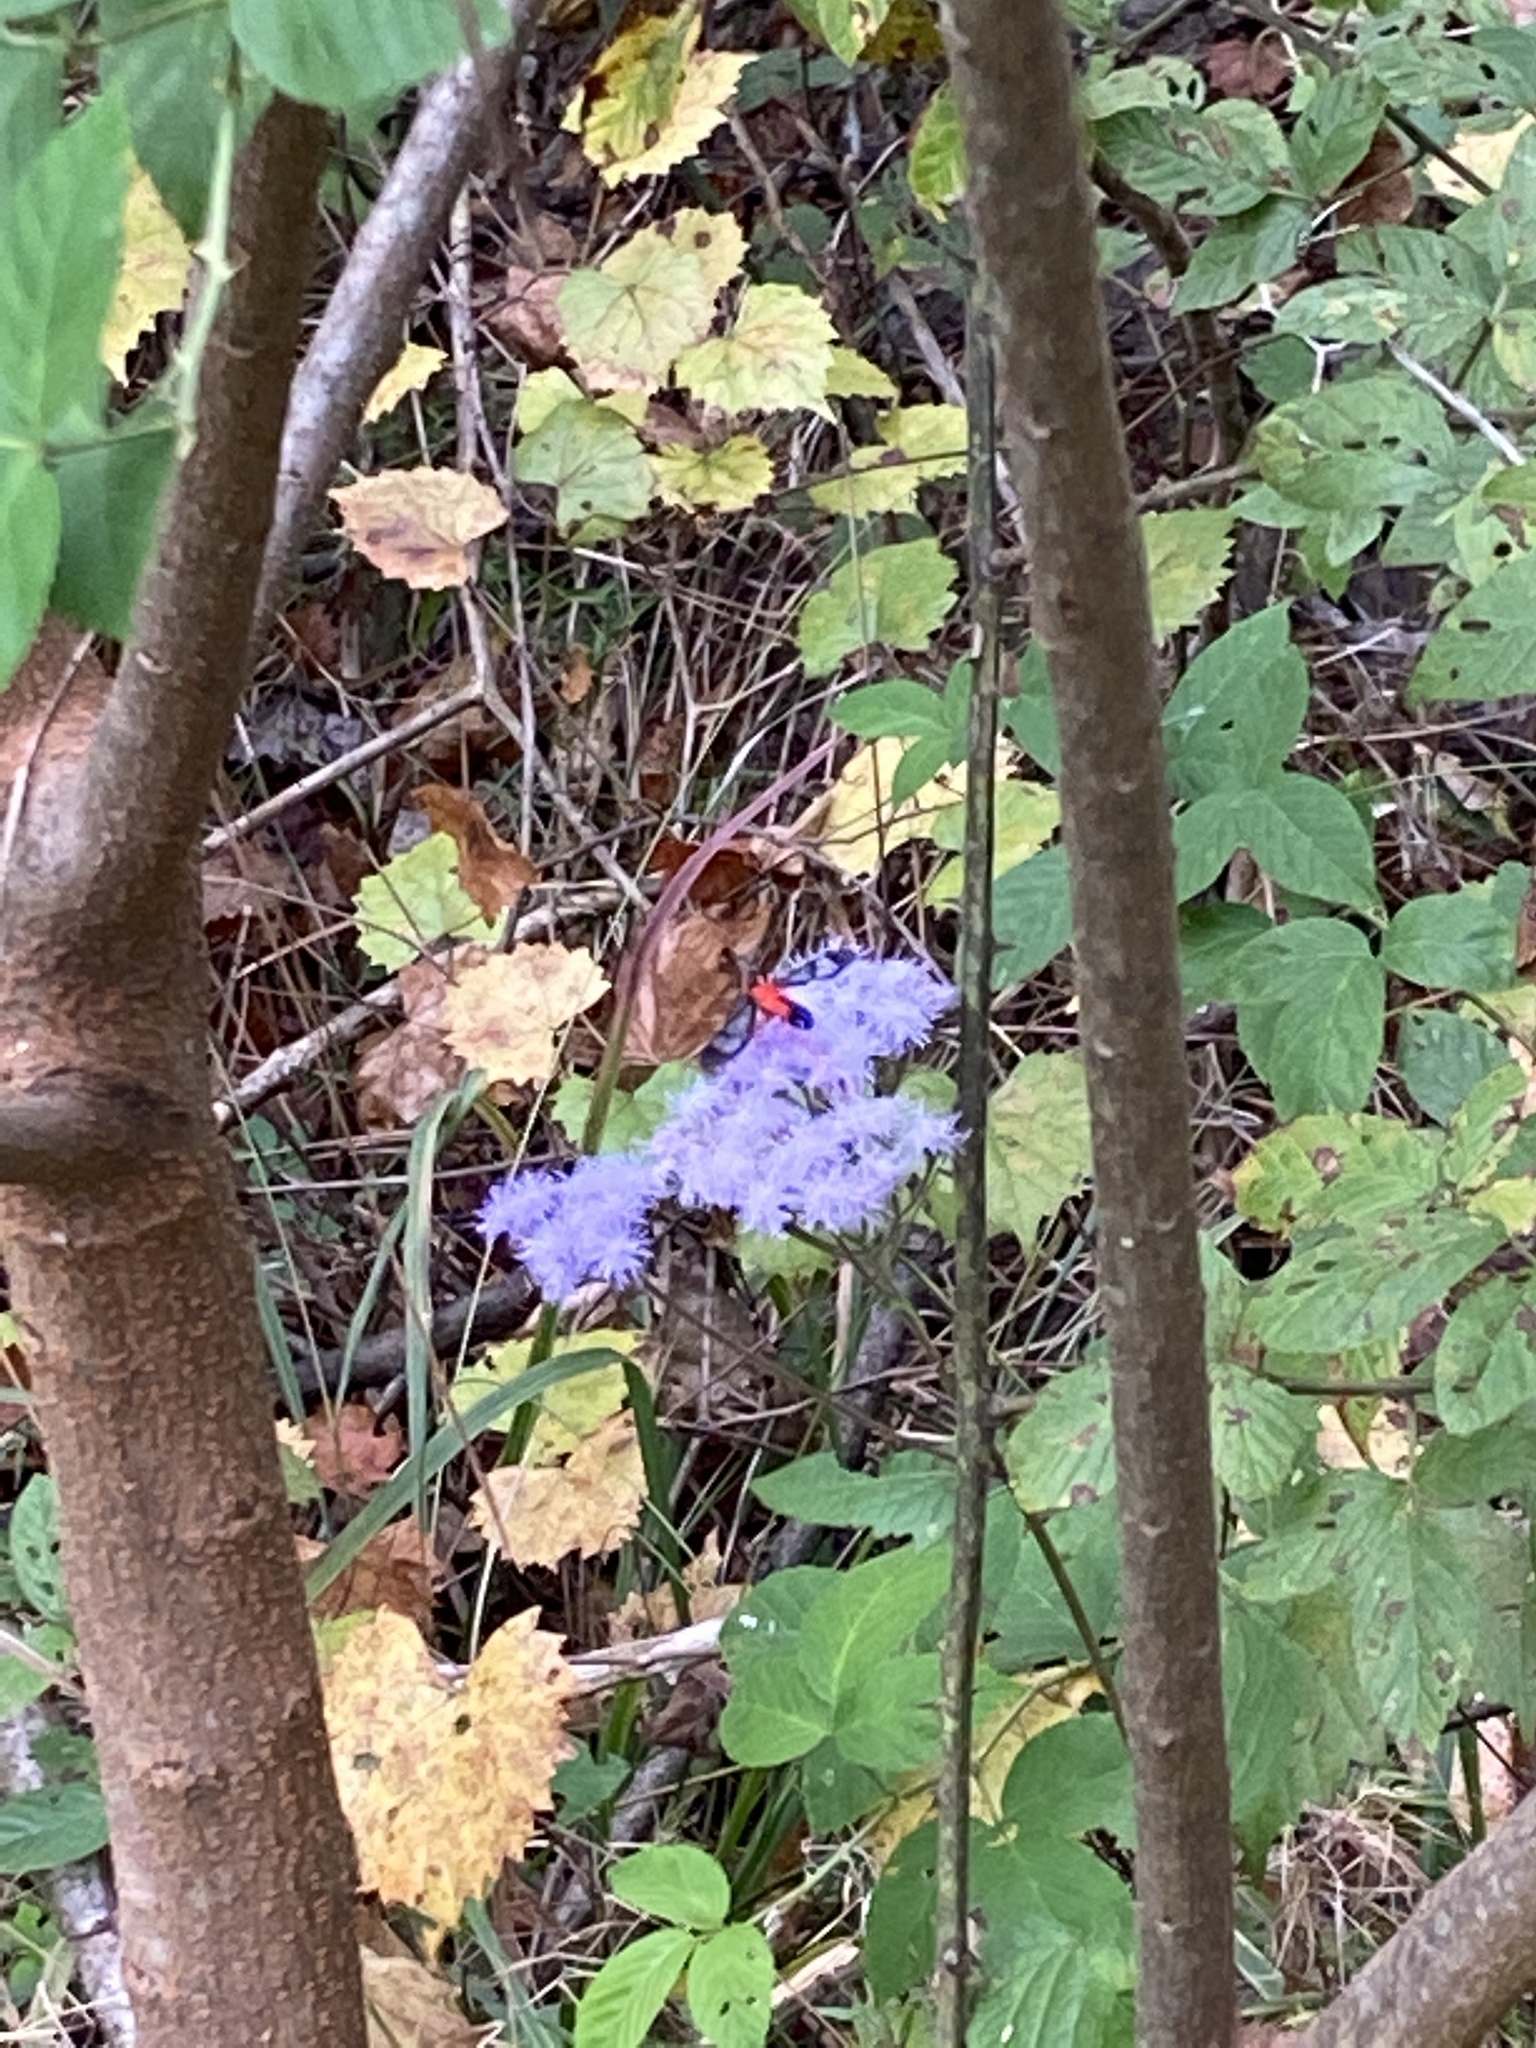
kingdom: Animalia
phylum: Arthropoda
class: Insecta
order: Lepidoptera
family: Erebidae
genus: Cosmosoma
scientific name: Cosmosoma myrodora
